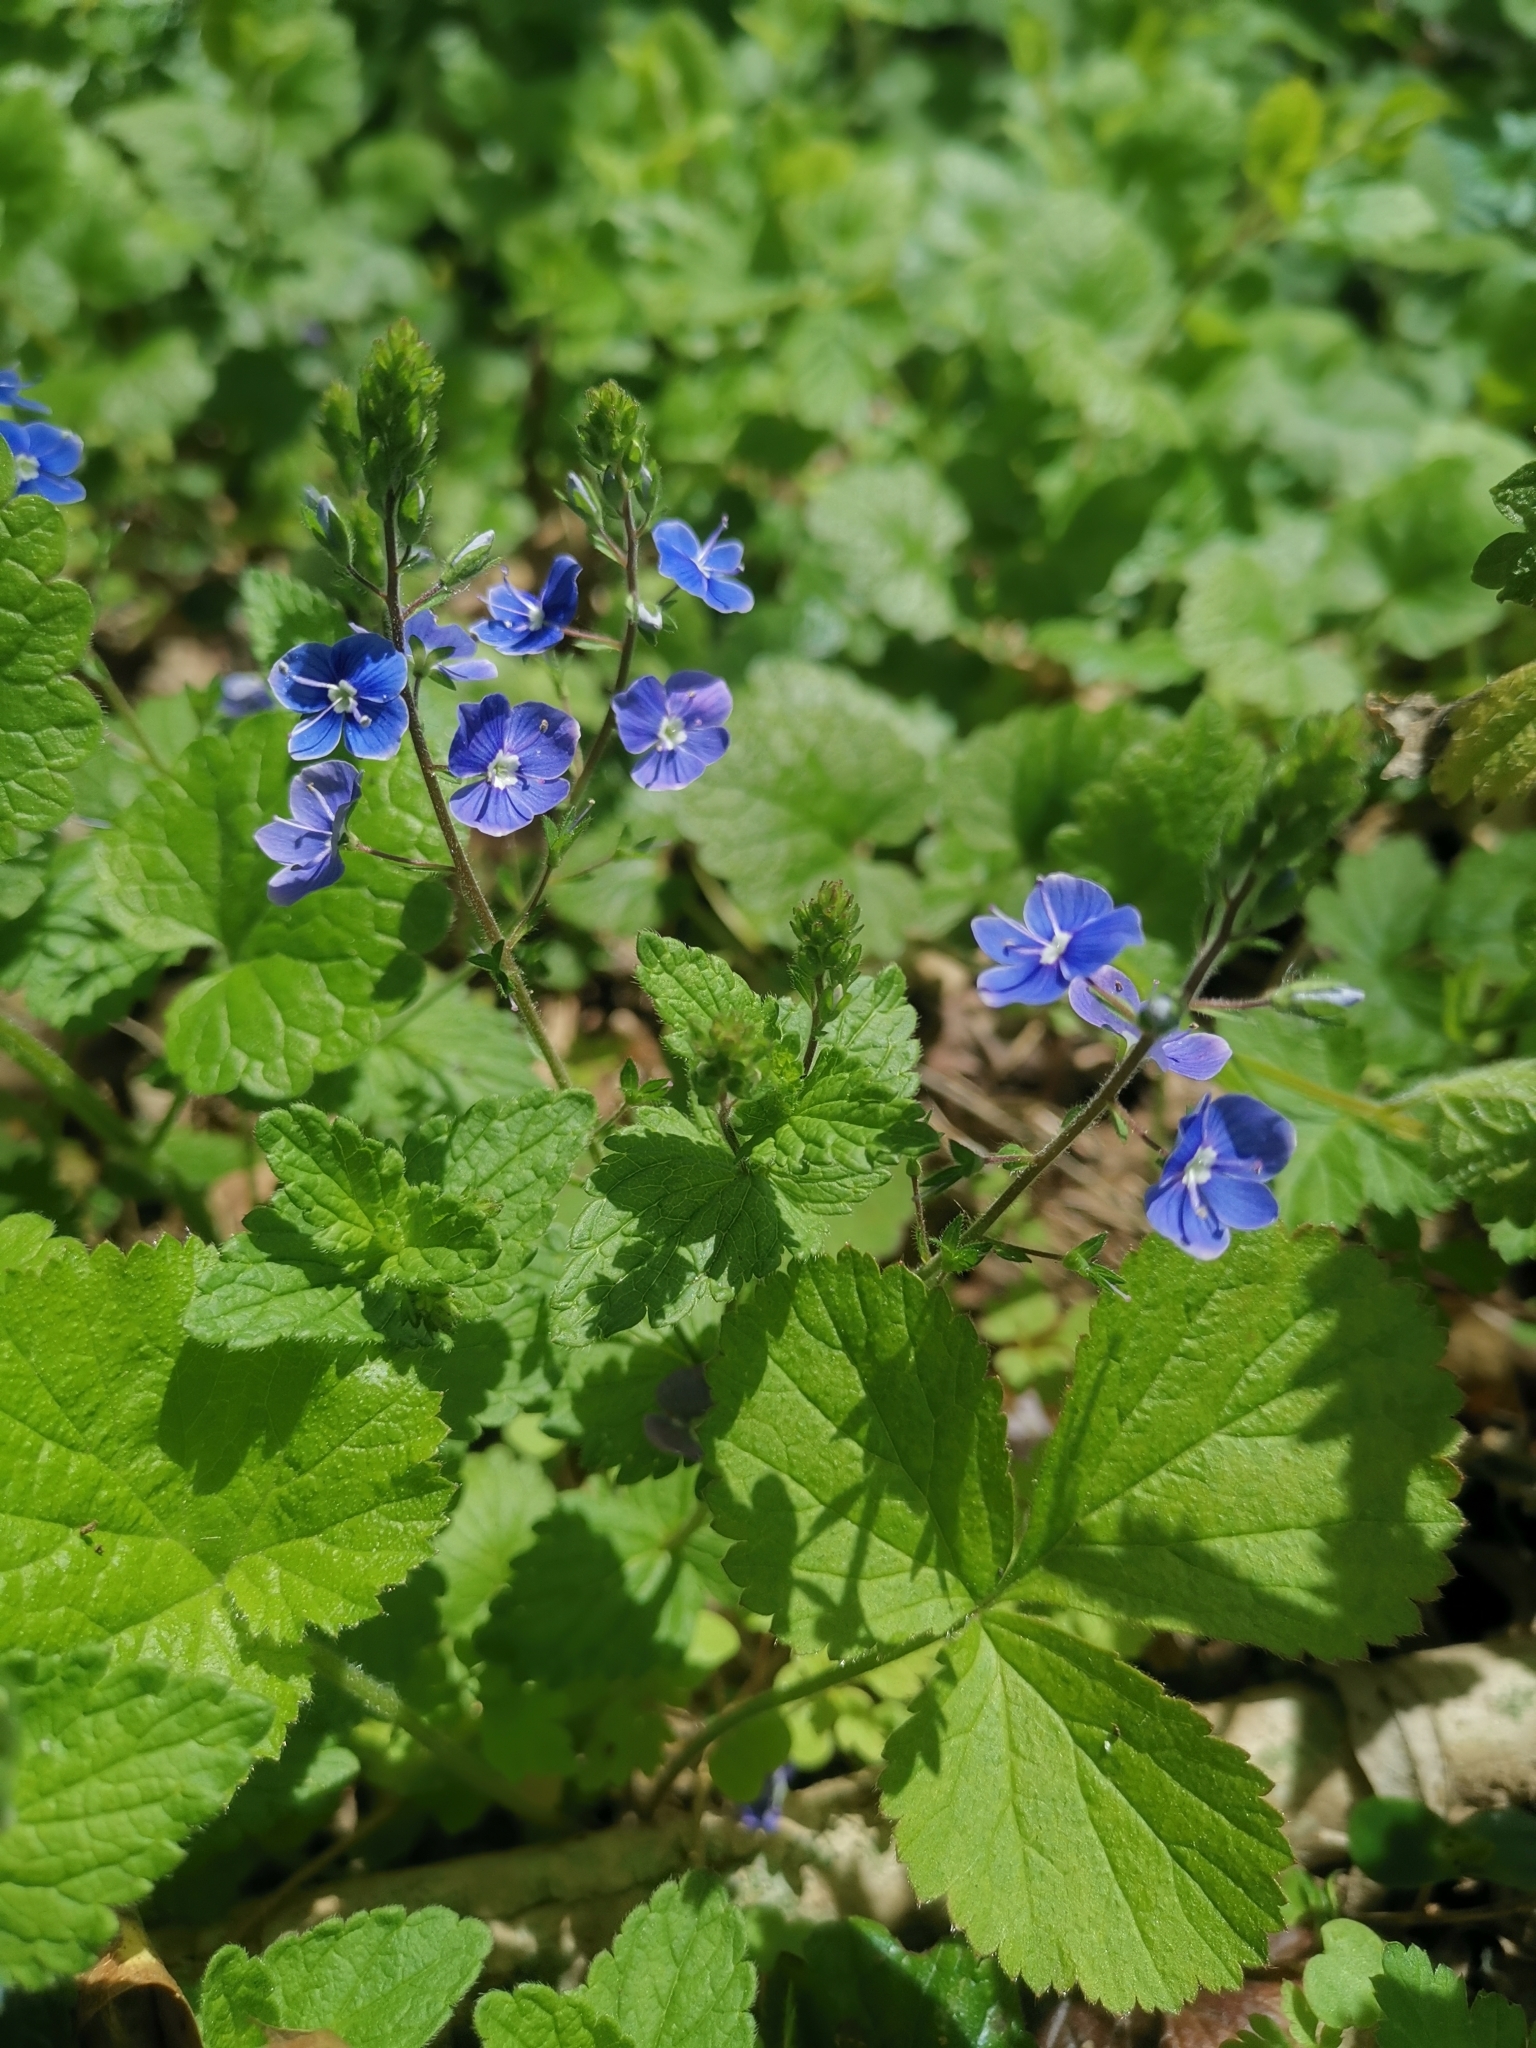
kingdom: Plantae
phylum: Tracheophyta
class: Magnoliopsida
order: Lamiales
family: Plantaginaceae
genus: Veronica
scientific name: Veronica chamaedrys
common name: Germander speedwell
